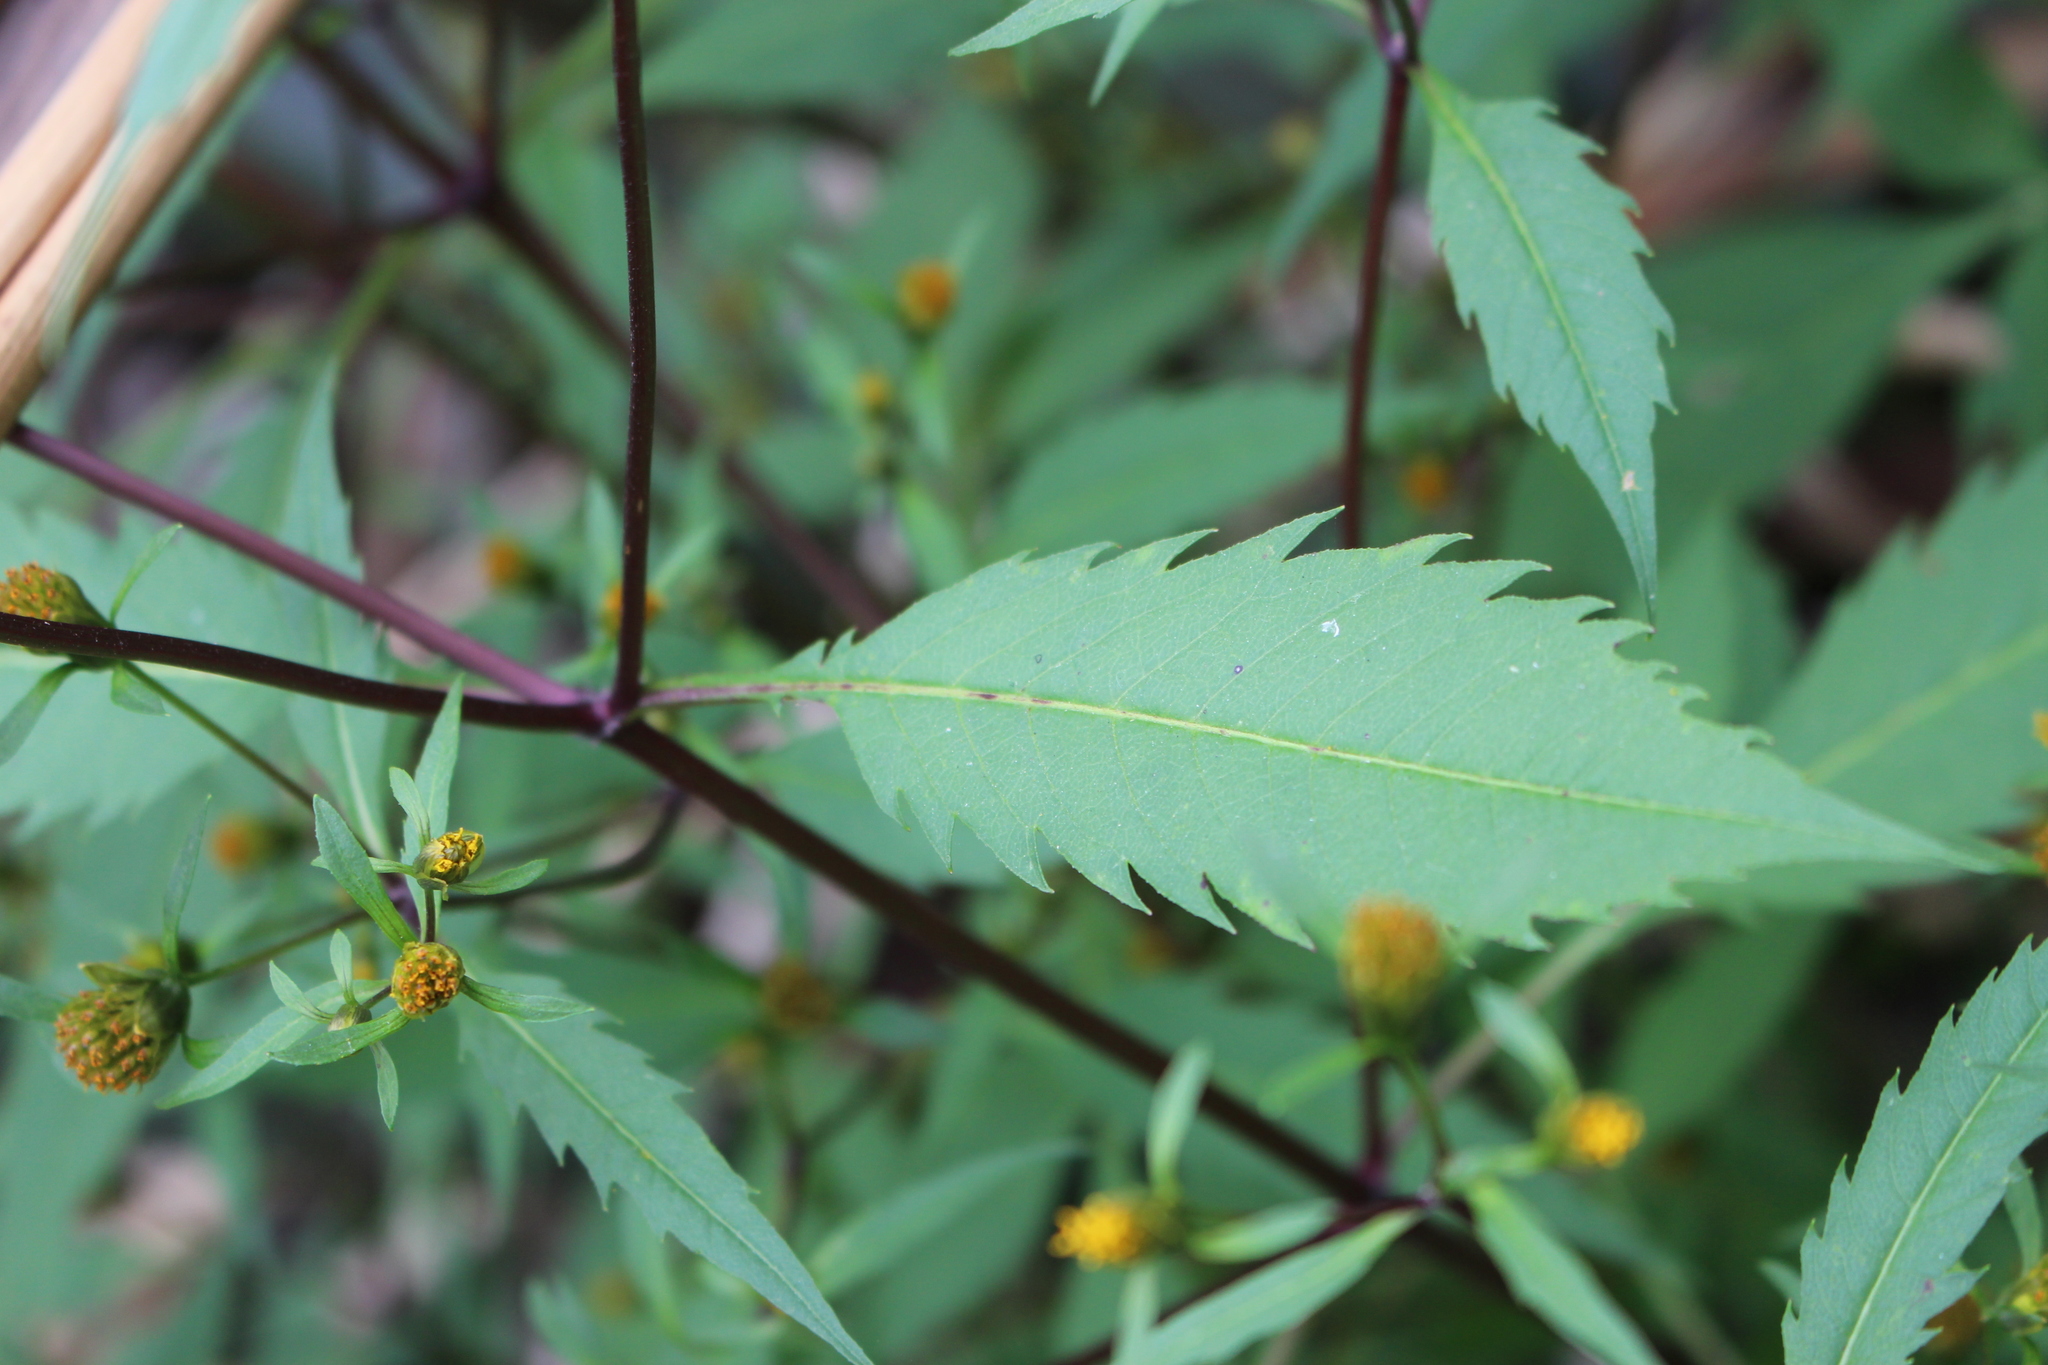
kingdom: Plantae
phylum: Tracheophyta
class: Magnoliopsida
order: Asterales
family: Asteraceae
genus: Bidens
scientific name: Bidens frondosa
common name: Beggarticks
